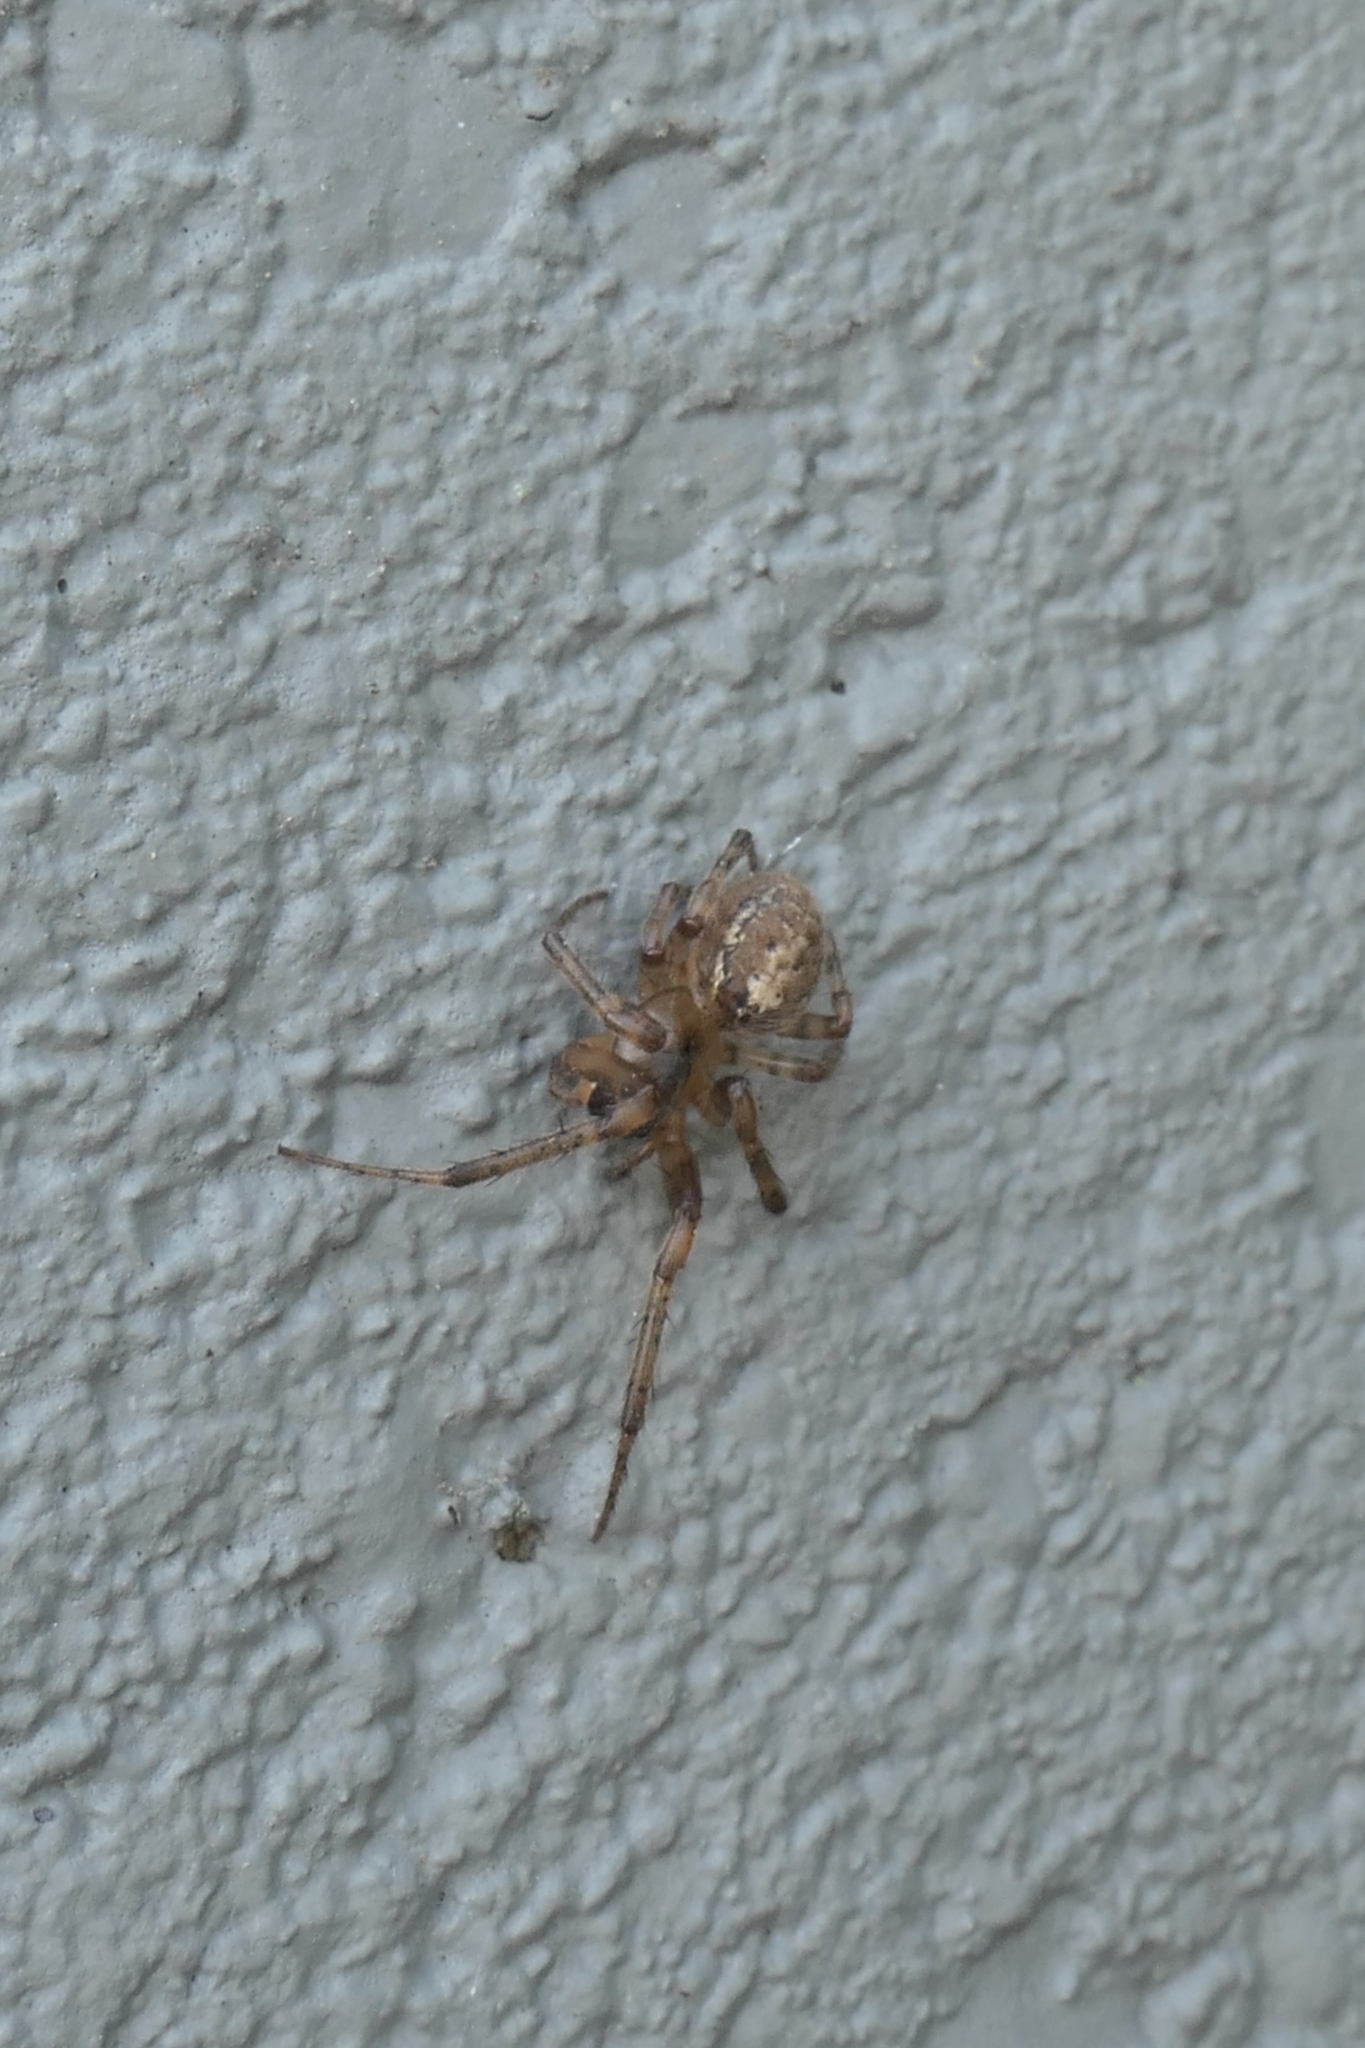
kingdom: Animalia
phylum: Arthropoda
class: Arachnida
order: Araneae
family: Araneidae
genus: Zygiella
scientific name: Zygiella x-notata
